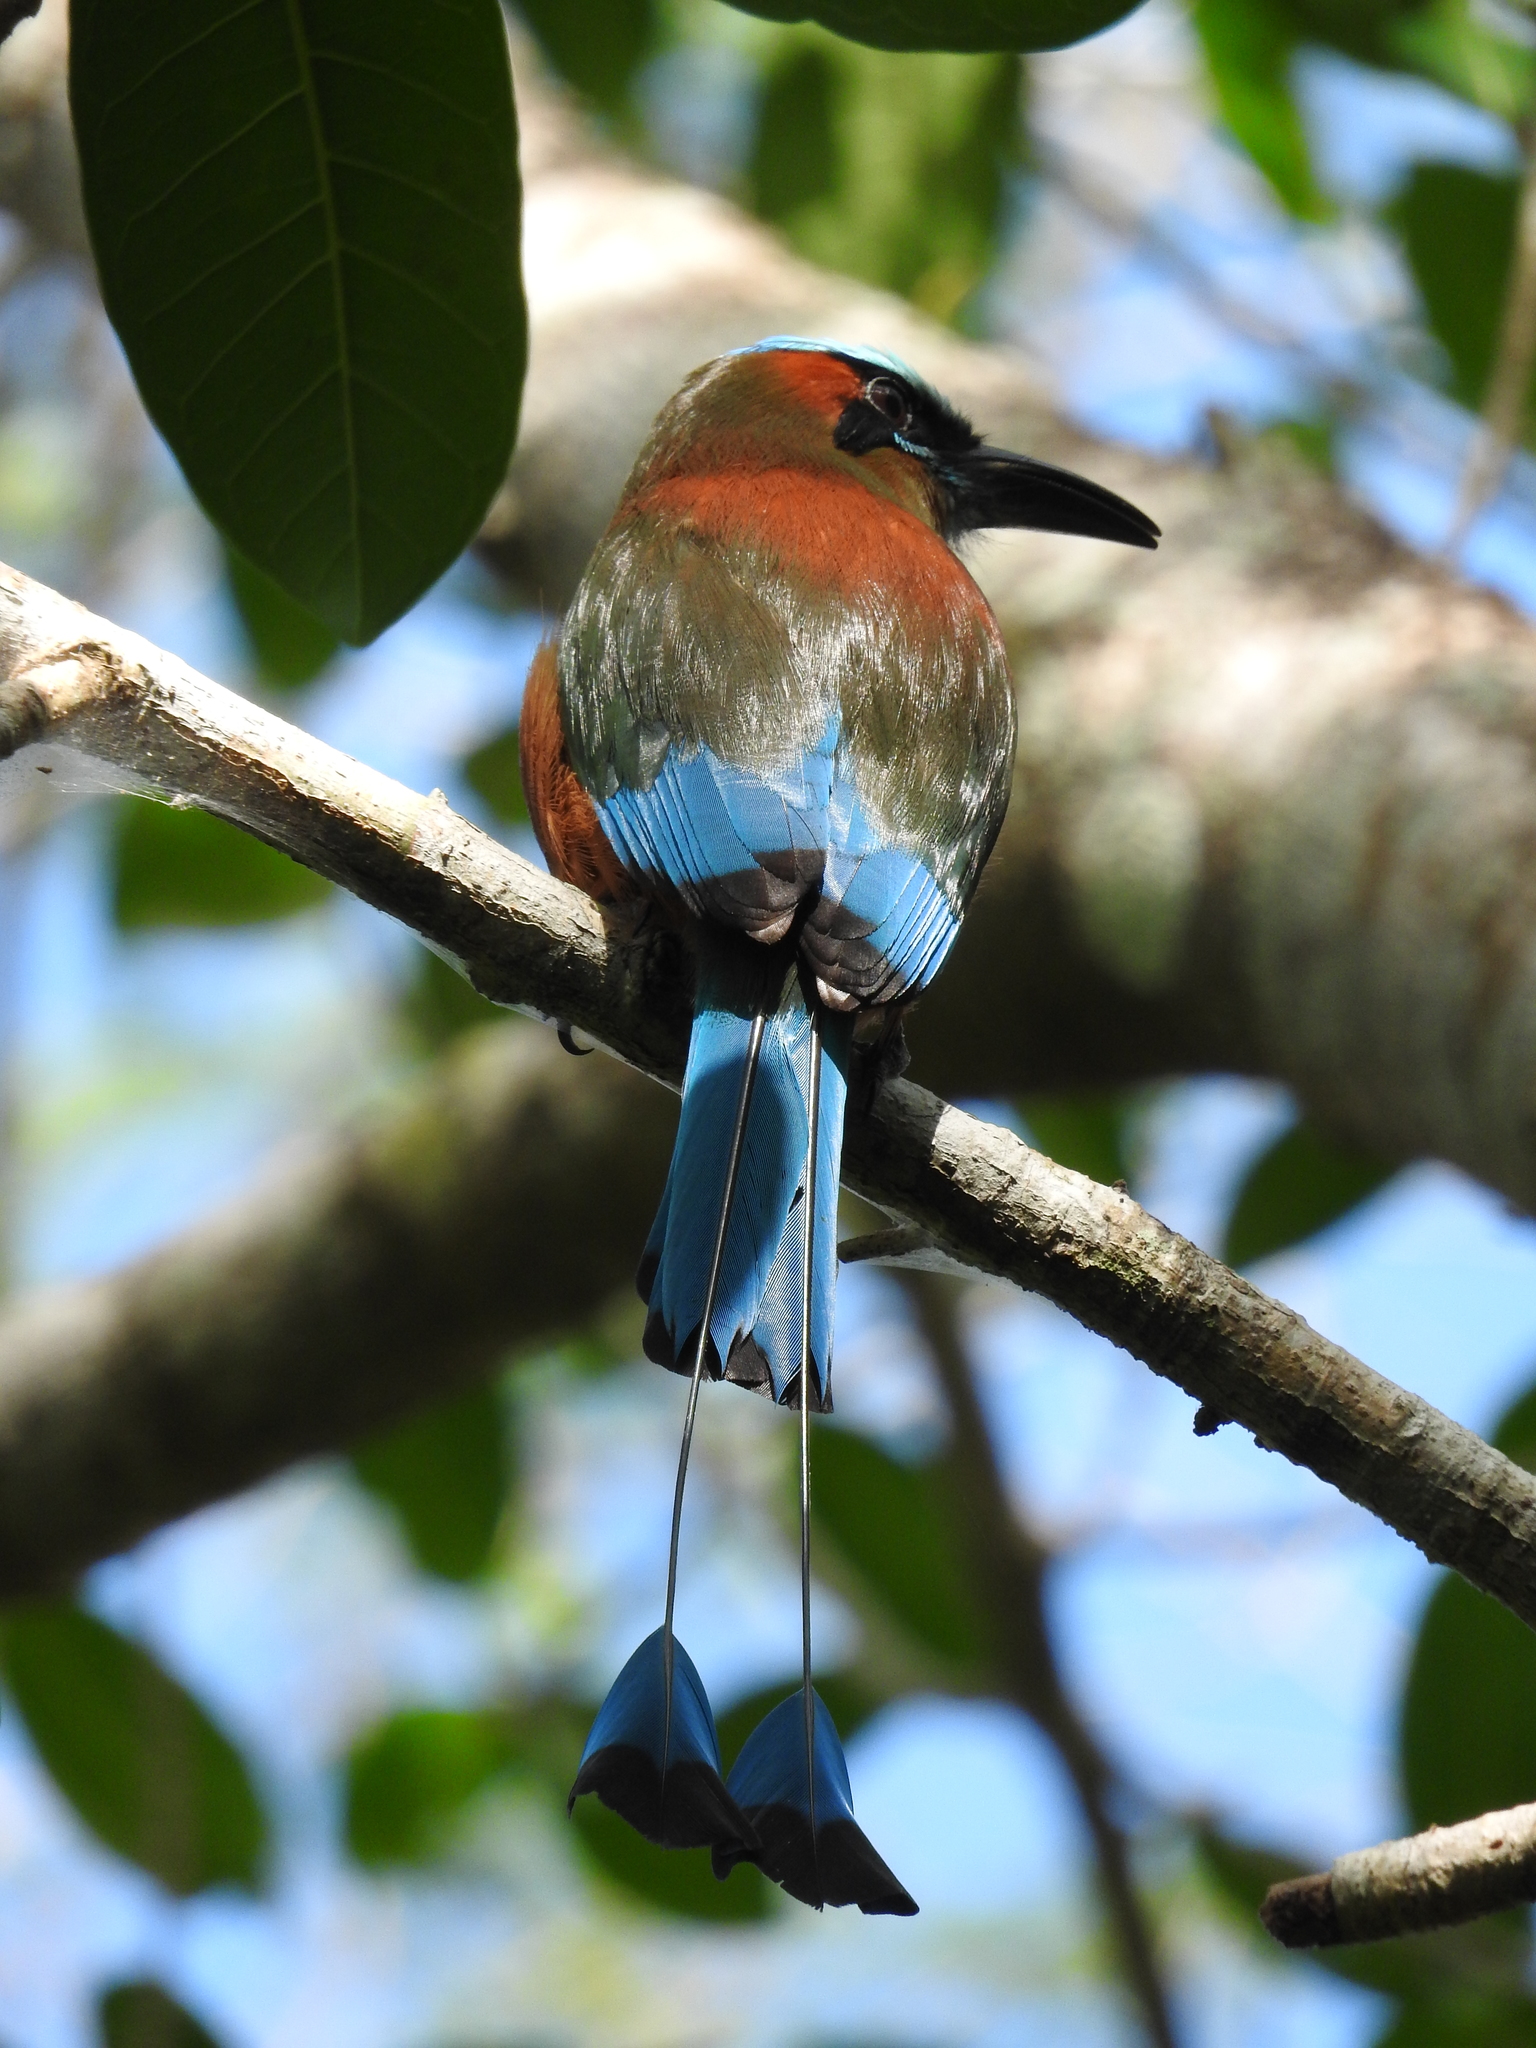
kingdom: Animalia
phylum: Chordata
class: Aves
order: Coraciiformes
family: Momotidae
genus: Eumomota
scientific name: Eumomota superciliosa
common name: Turquoise-browed motmot
